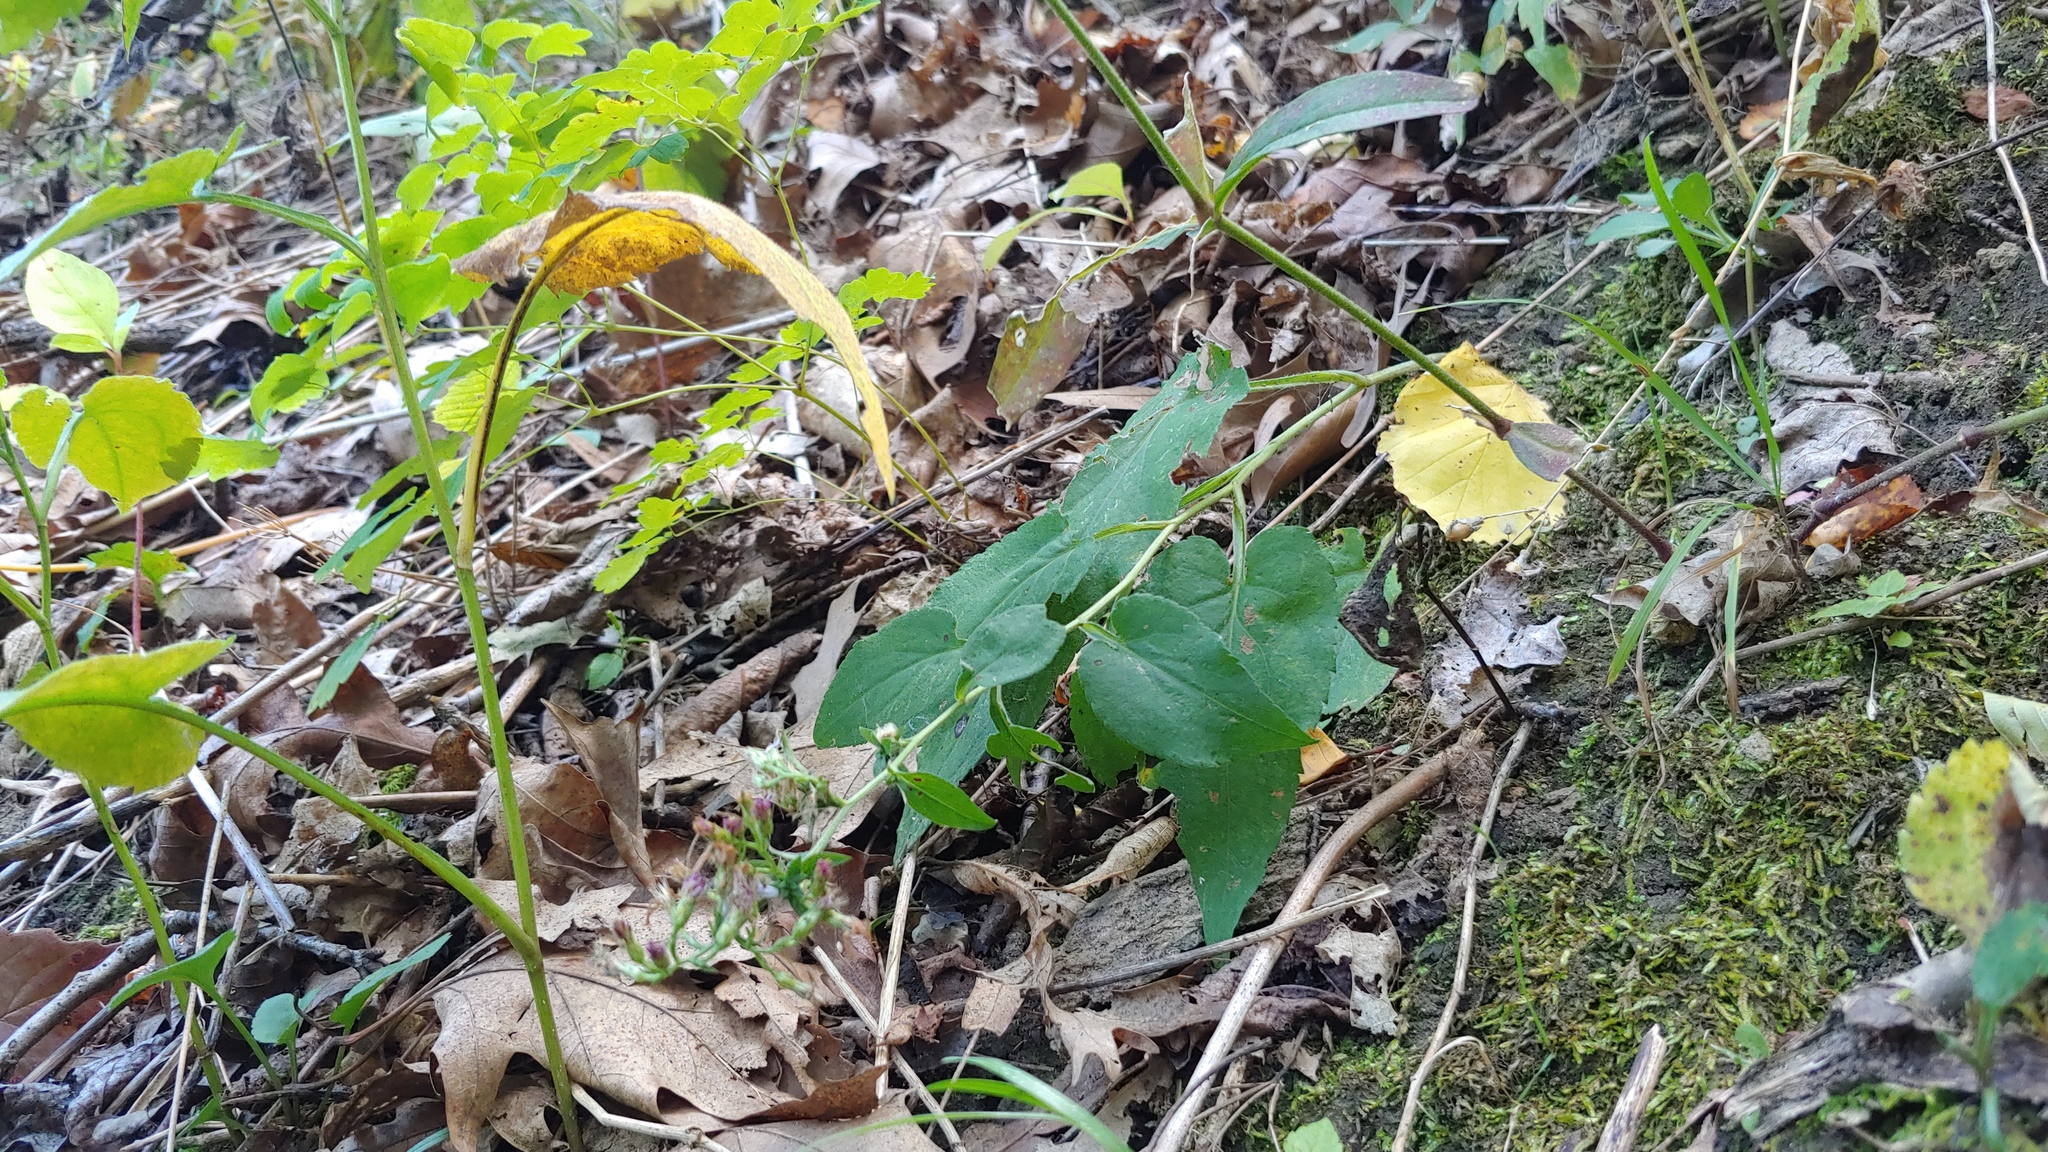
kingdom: Plantae
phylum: Tracheophyta
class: Magnoliopsida
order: Caryophyllales
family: Caryophyllaceae
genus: Silene
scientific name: Silene stellata
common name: Starry campion
